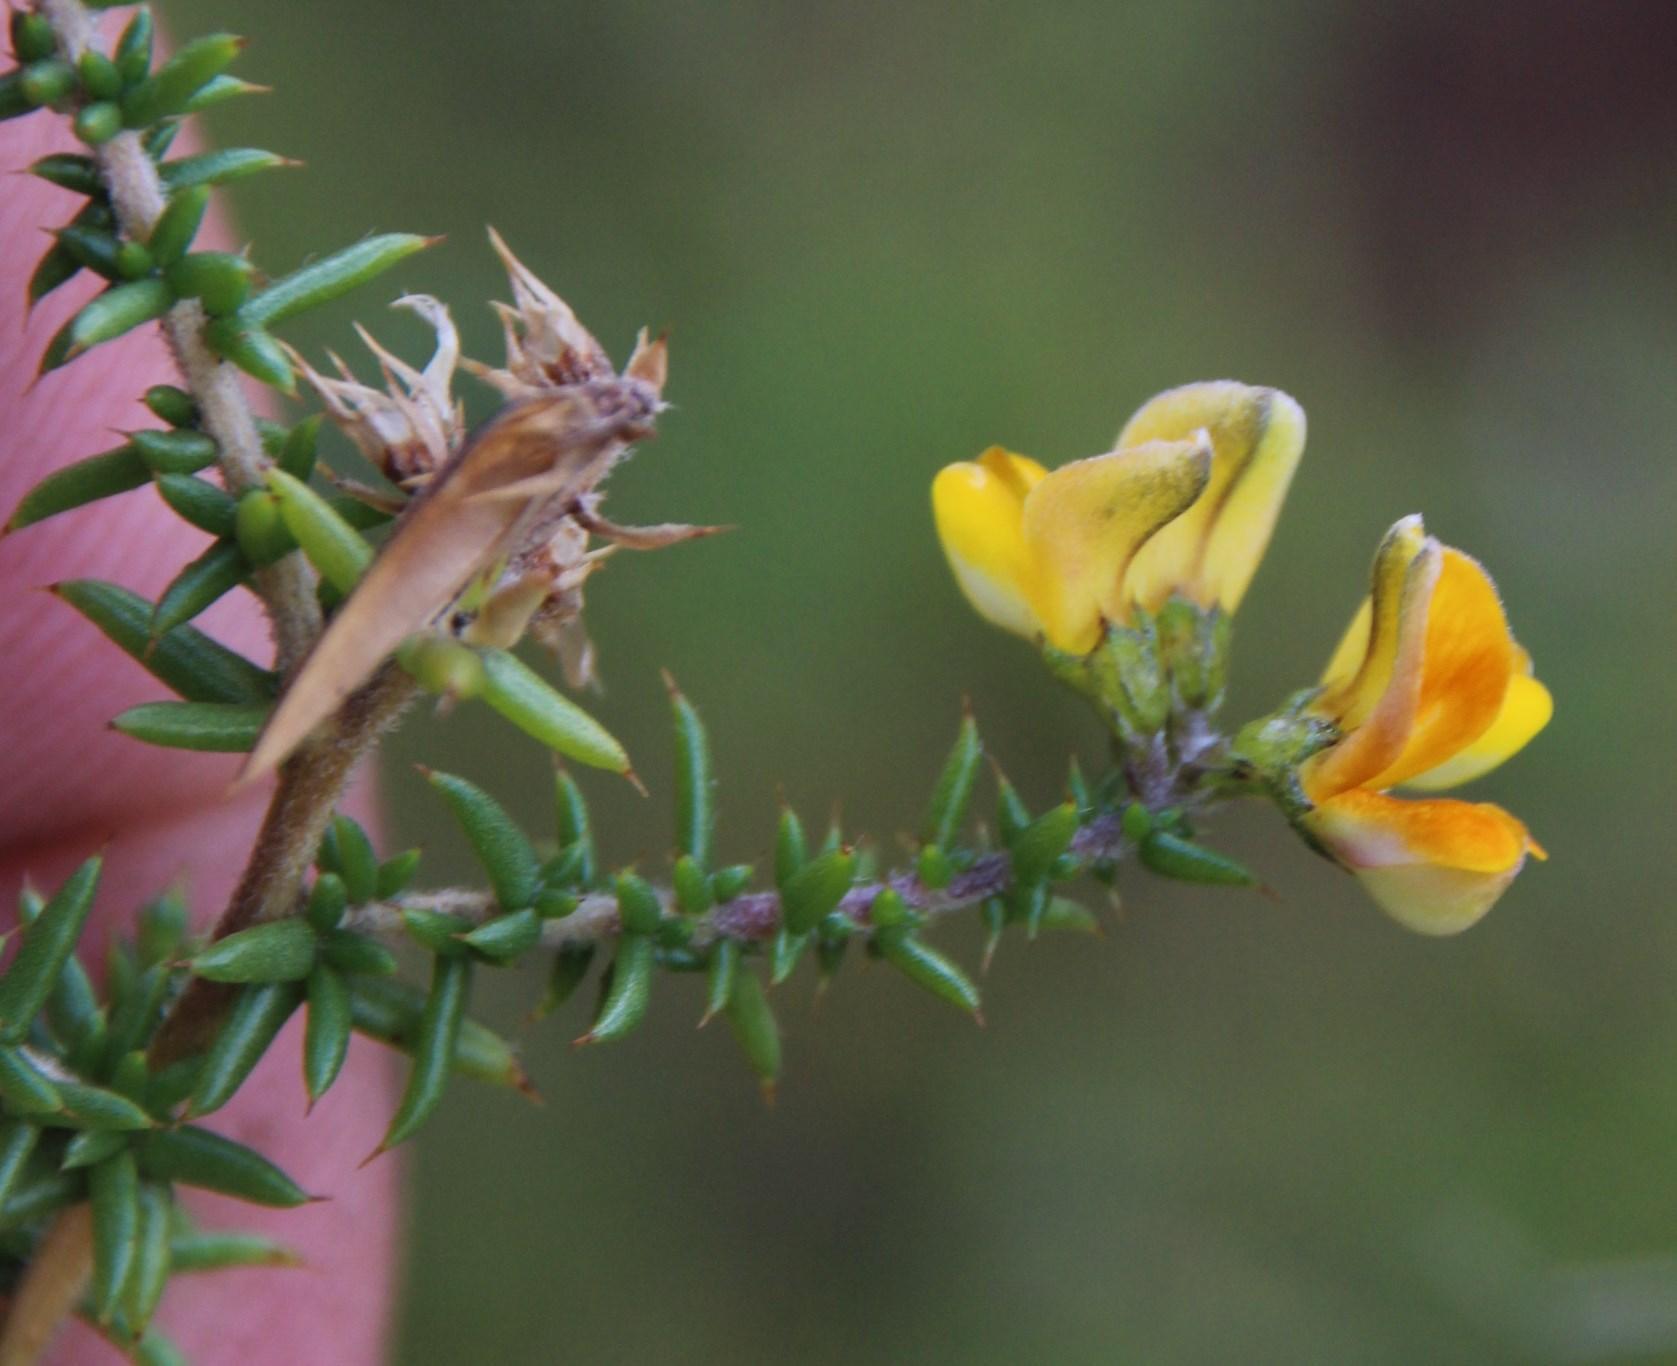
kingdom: Plantae
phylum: Tracheophyta
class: Magnoliopsida
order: Fabales
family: Fabaceae
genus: Aspalathus
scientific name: Aspalathus divaricata
